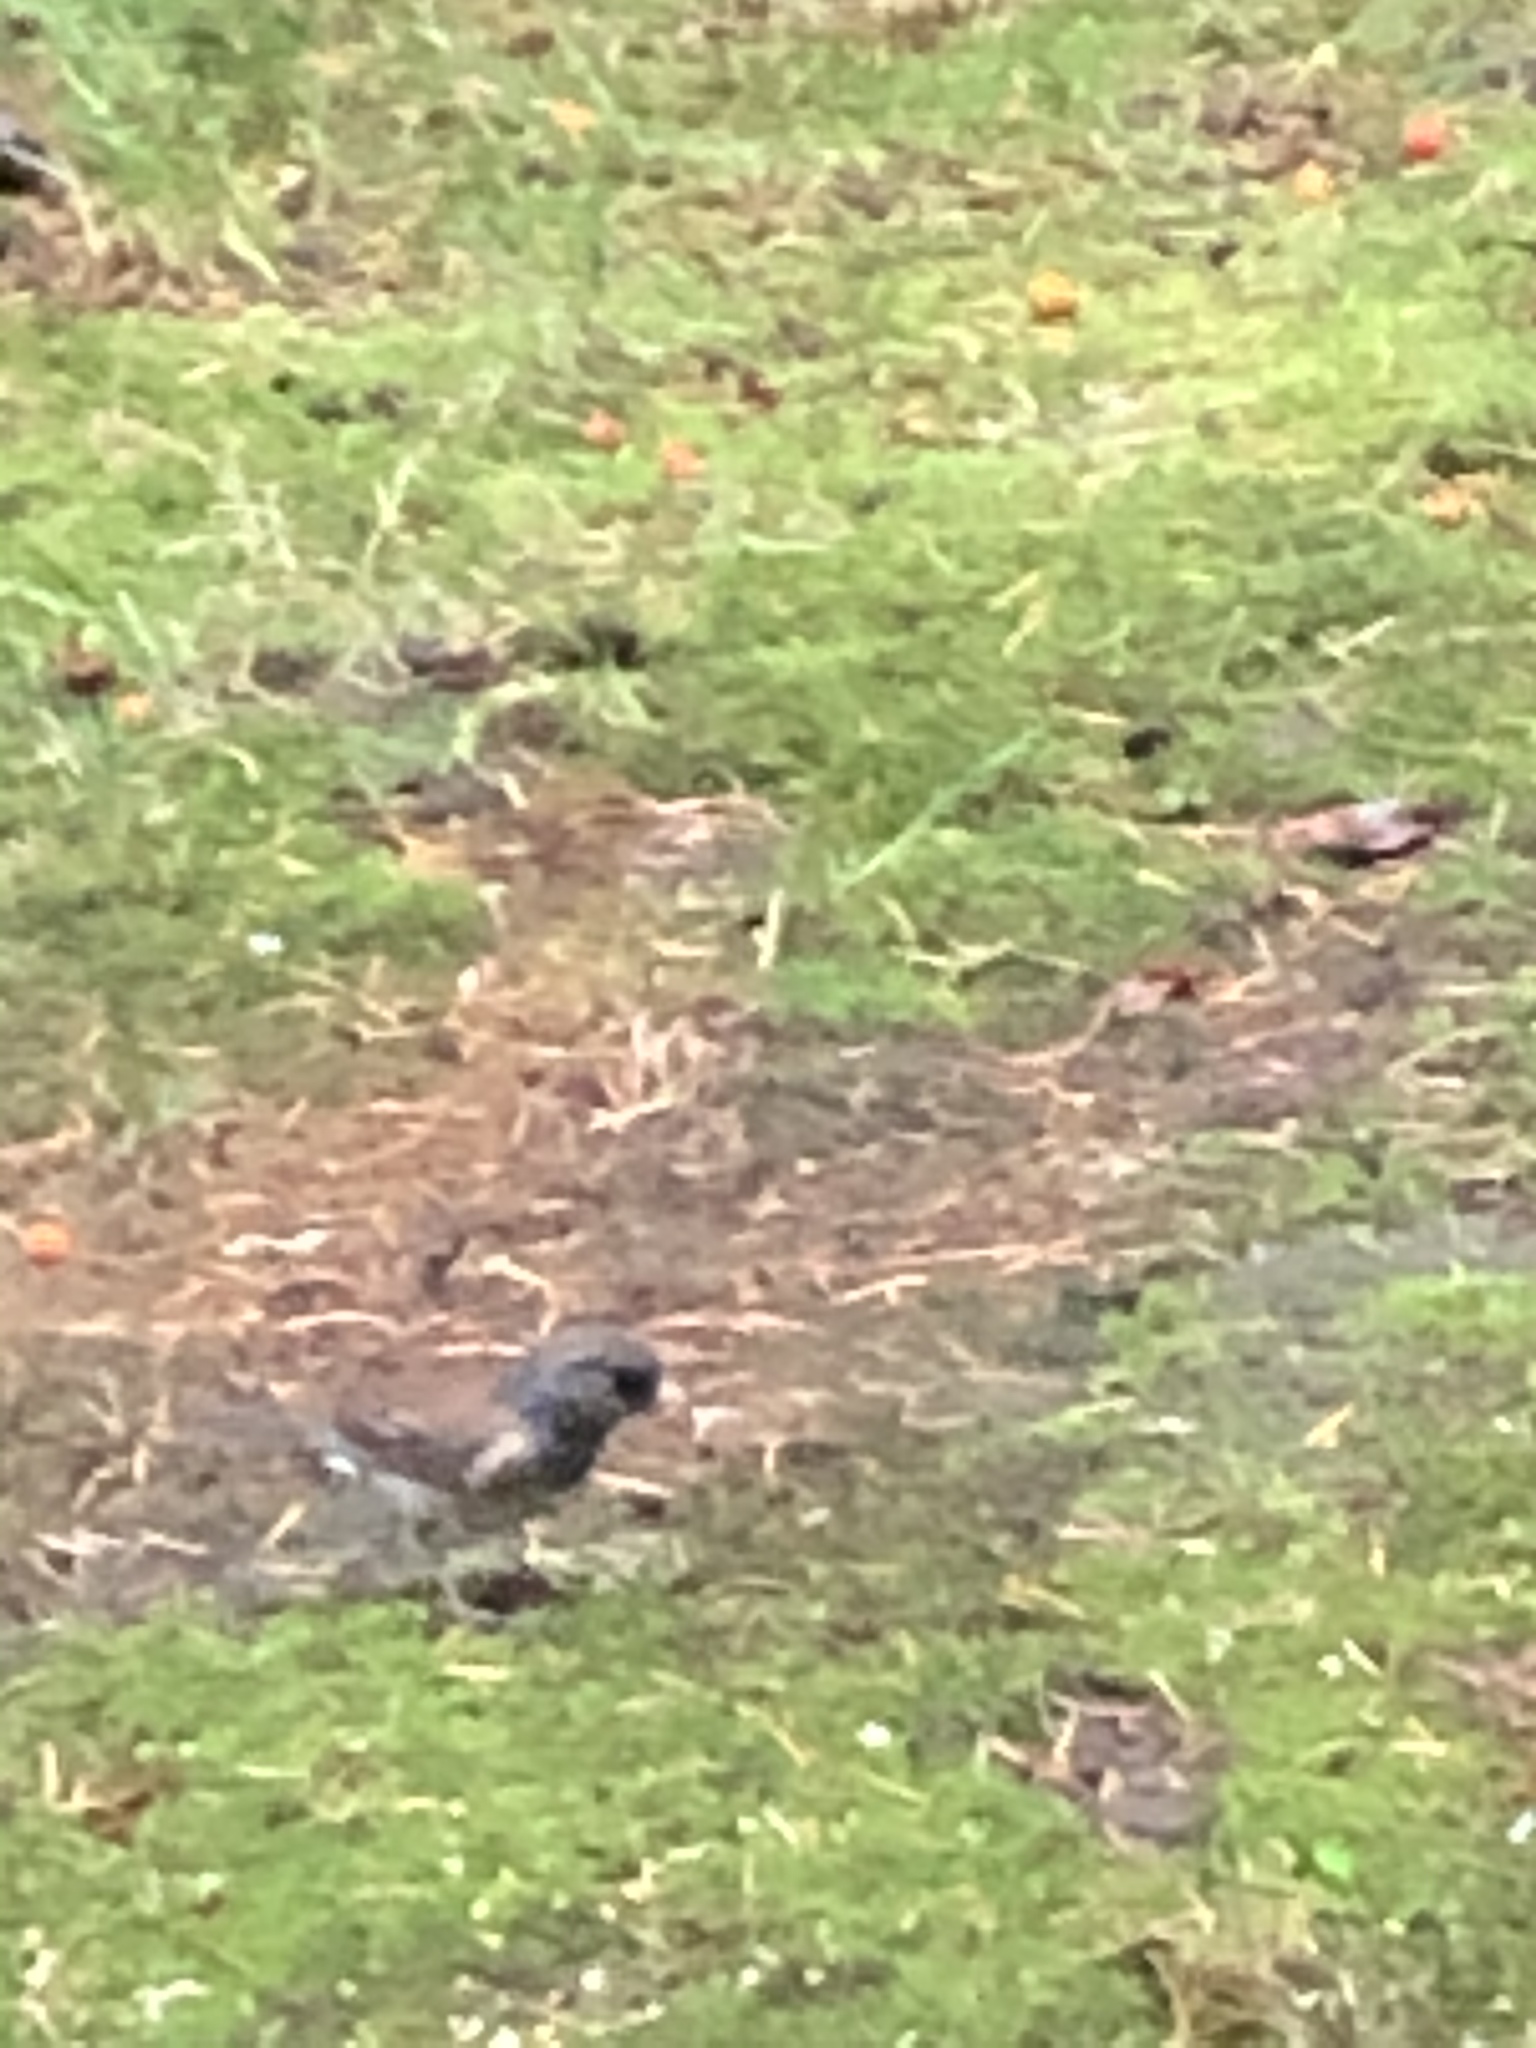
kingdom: Animalia
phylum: Chordata
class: Aves
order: Passeriformes
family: Passerellidae
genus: Junco
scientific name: Junco hyemalis
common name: Dark-eyed junco
